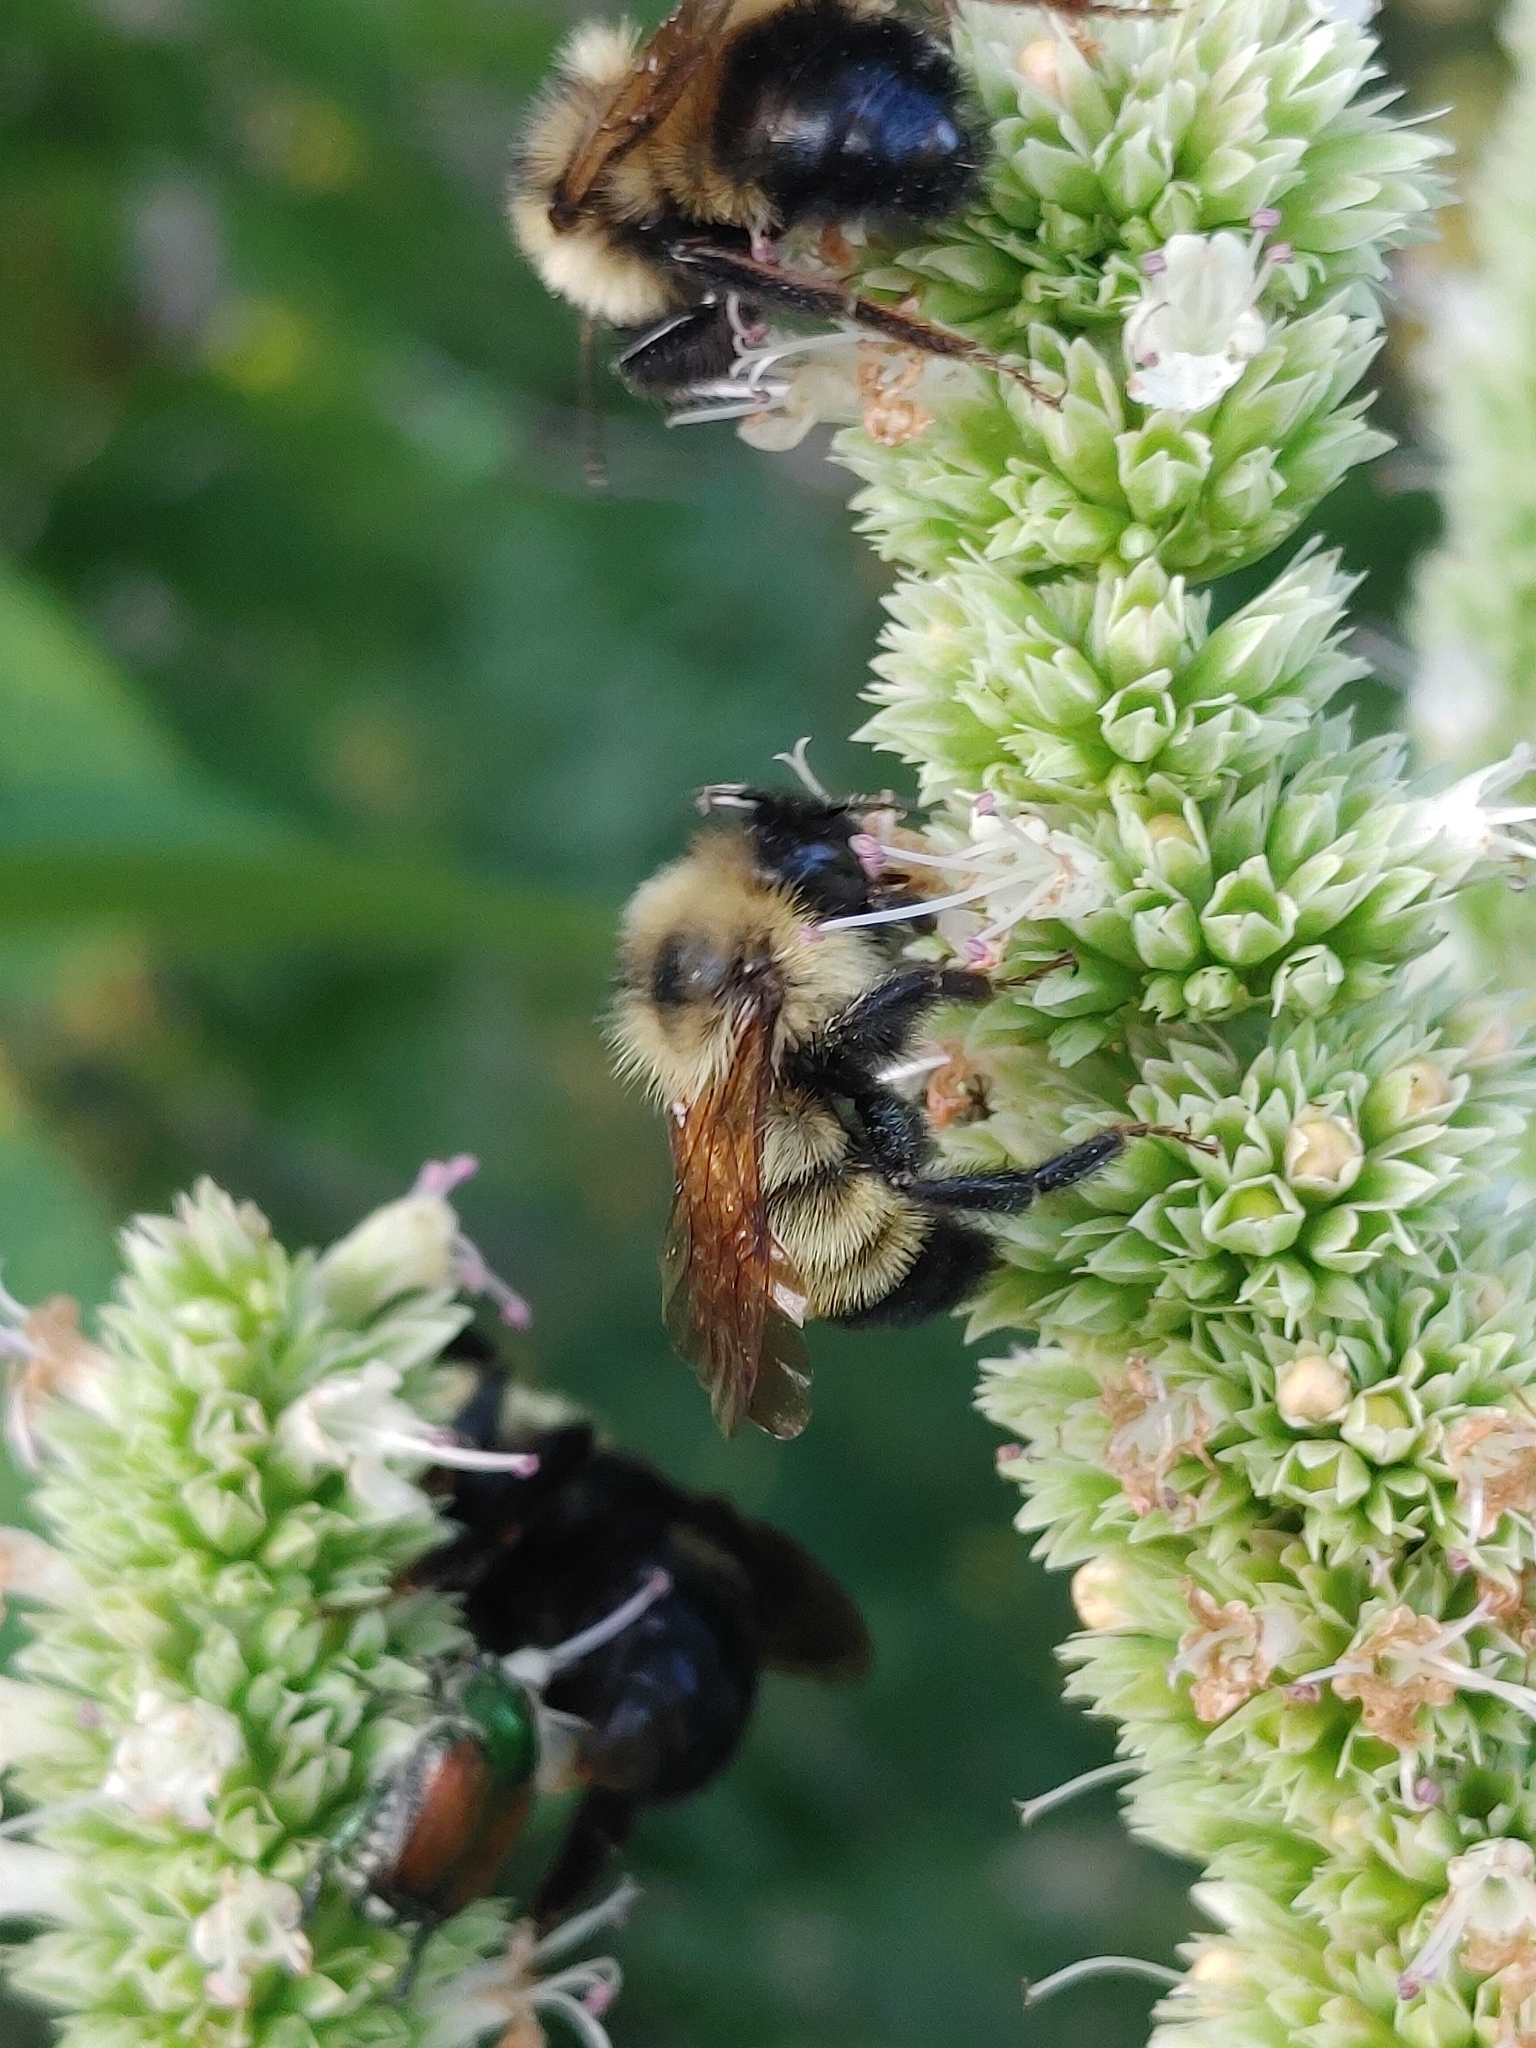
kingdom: Animalia
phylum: Arthropoda
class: Insecta
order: Hymenoptera
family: Apidae
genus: Bombus
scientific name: Bombus citrinus
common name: Lemon cuckoo bumble bee
